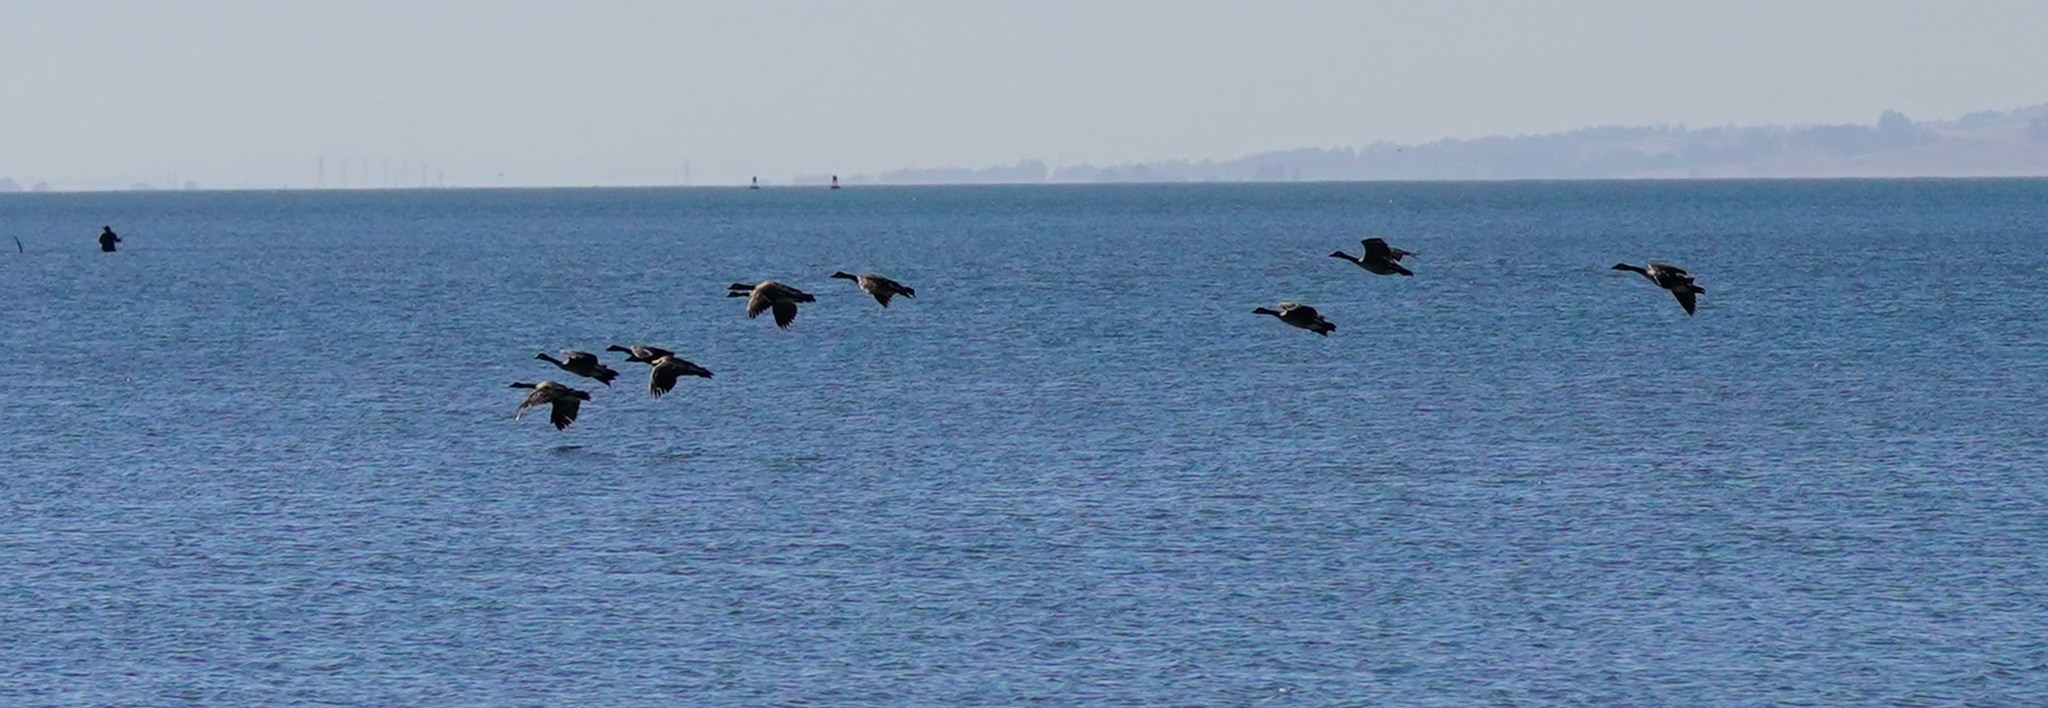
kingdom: Animalia
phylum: Chordata
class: Aves
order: Anseriformes
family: Anatidae
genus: Branta
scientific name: Branta canadensis
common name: Canada goose
